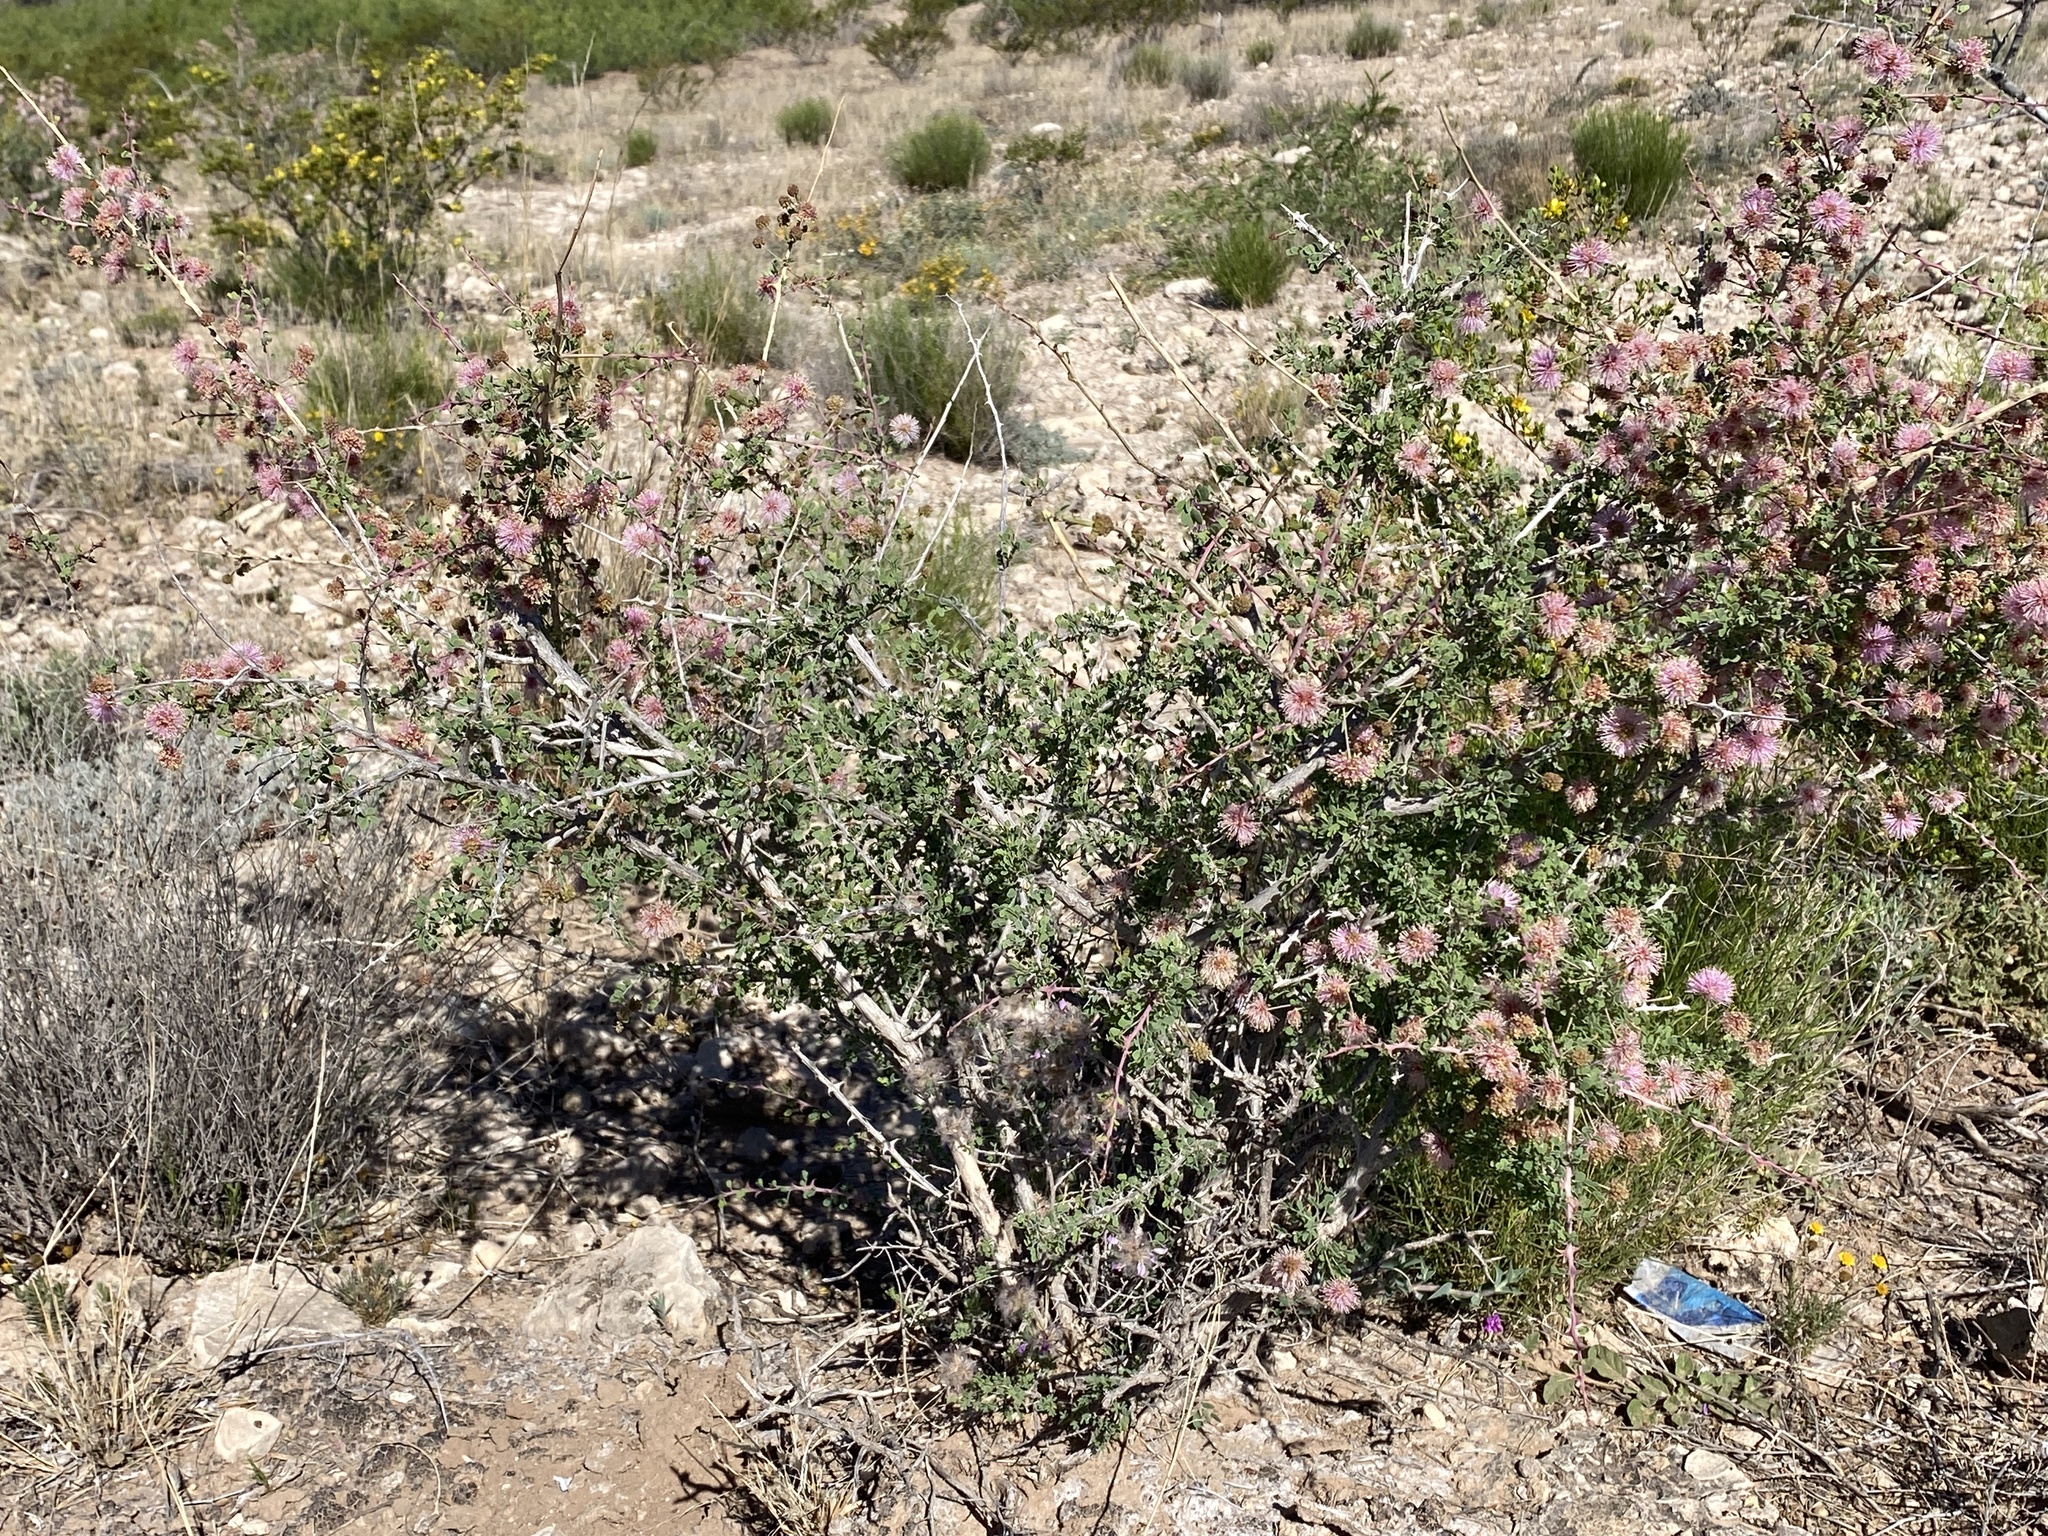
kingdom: Plantae
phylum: Tracheophyta
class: Magnoliopsida
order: Fabales
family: Fabaceae
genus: Mimosa
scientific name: Mimosa borealis
